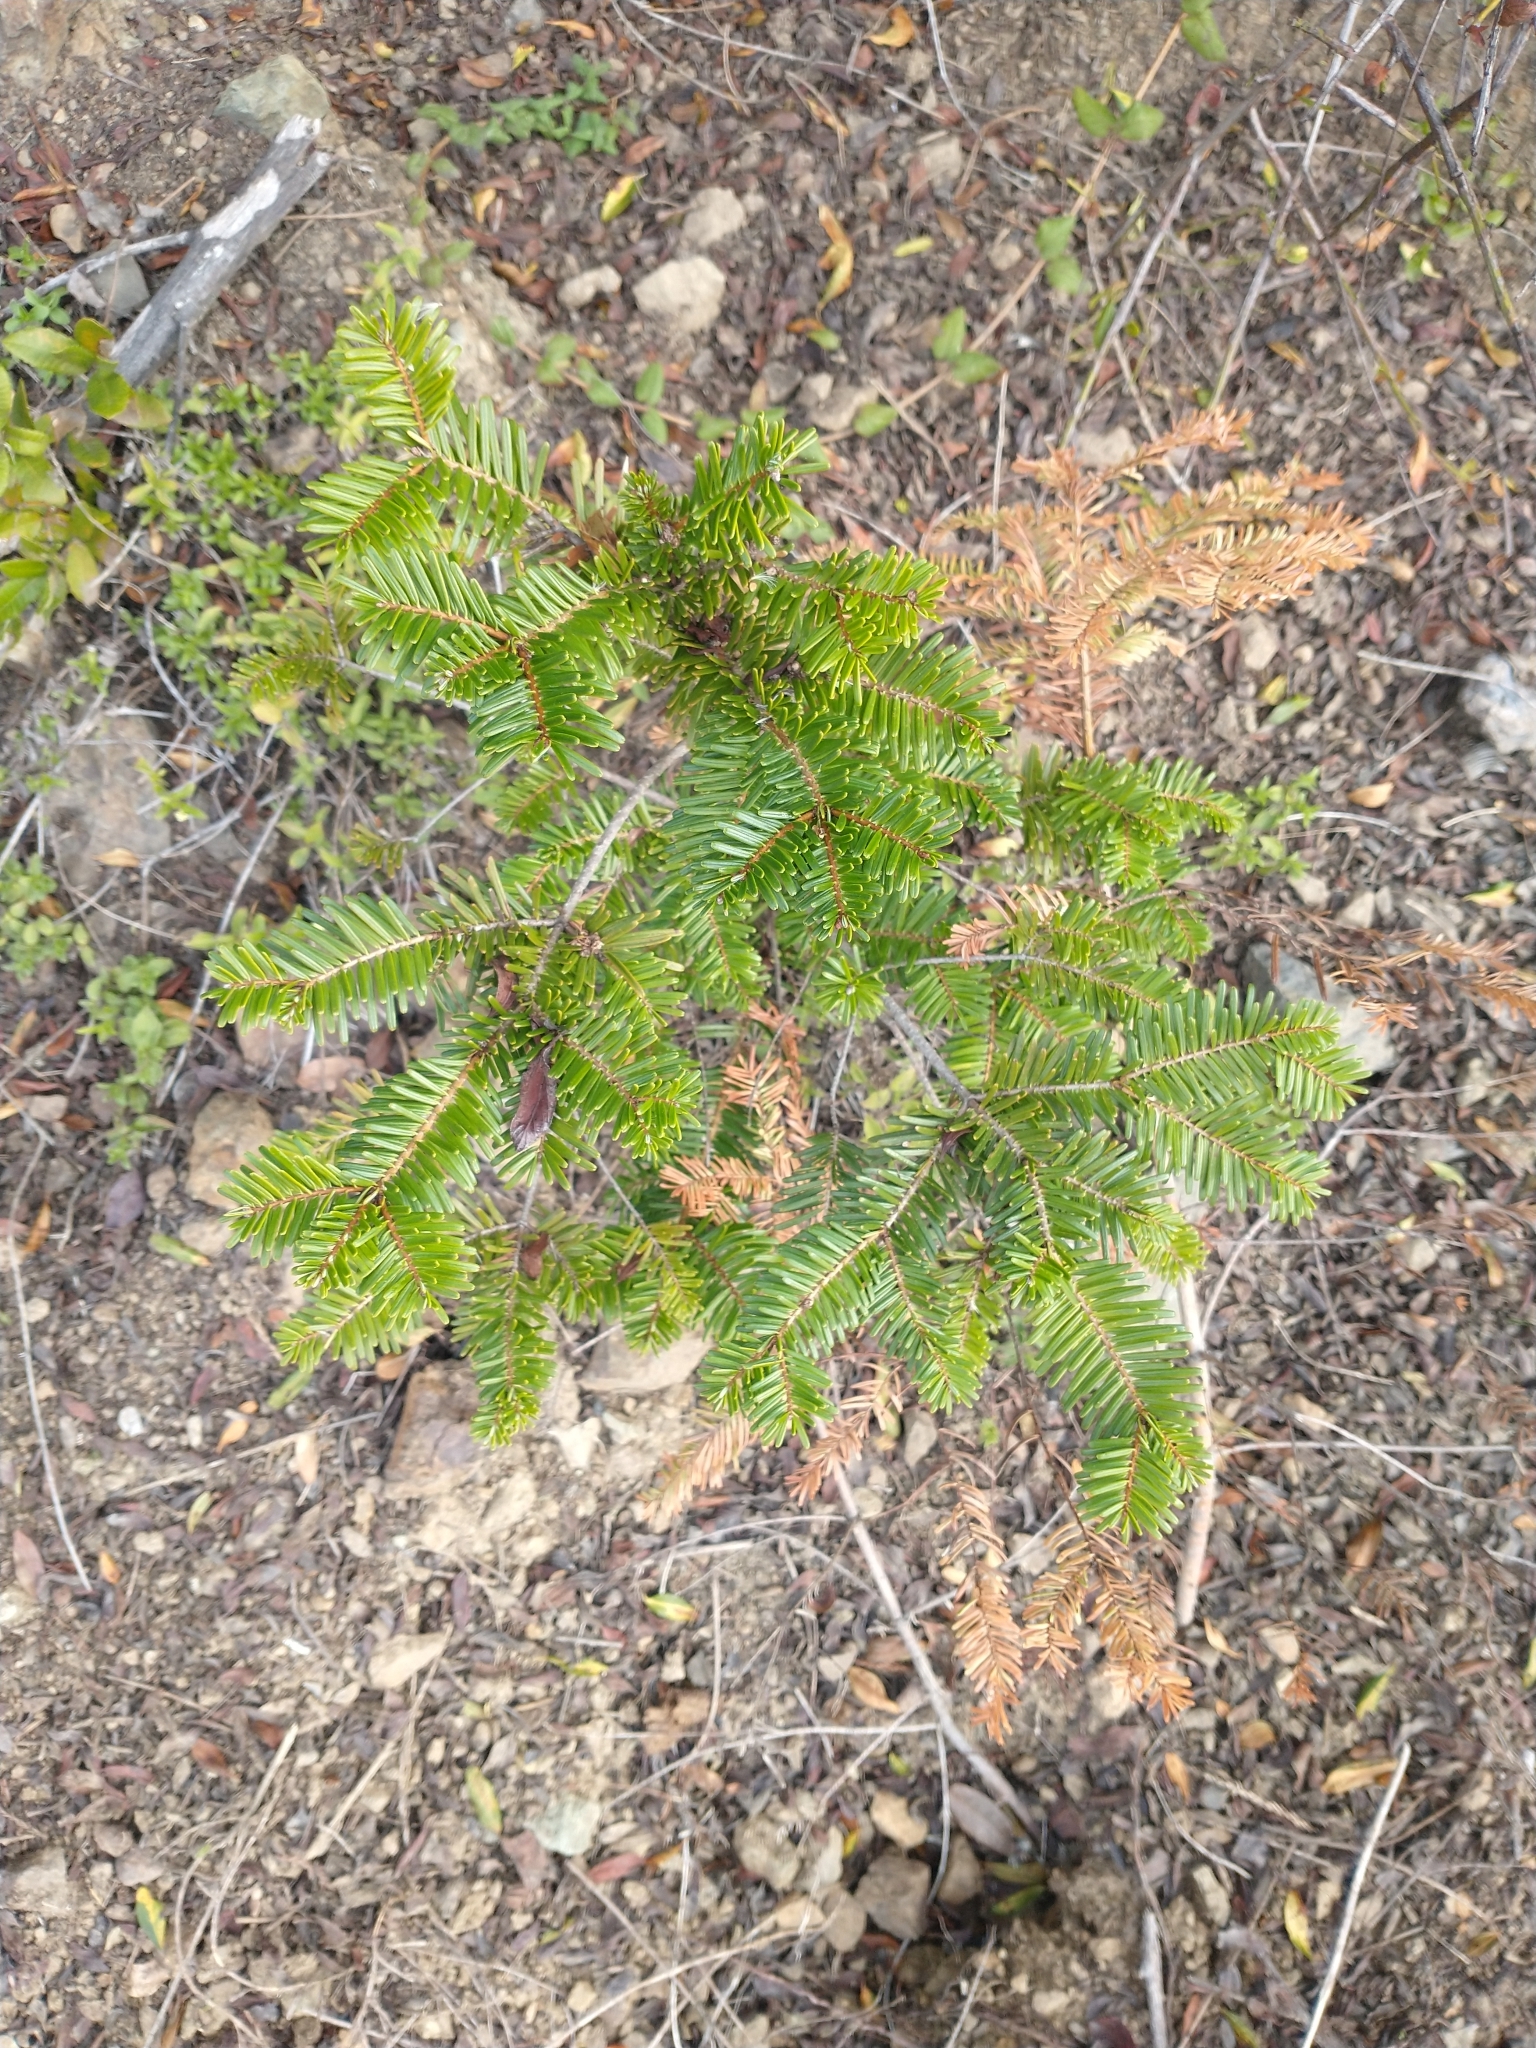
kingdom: Plantae
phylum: Tracheophyta
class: Pinopsida
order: Pinales
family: Pinaceae
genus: Abies
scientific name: Abies grandis
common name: Giant fir
